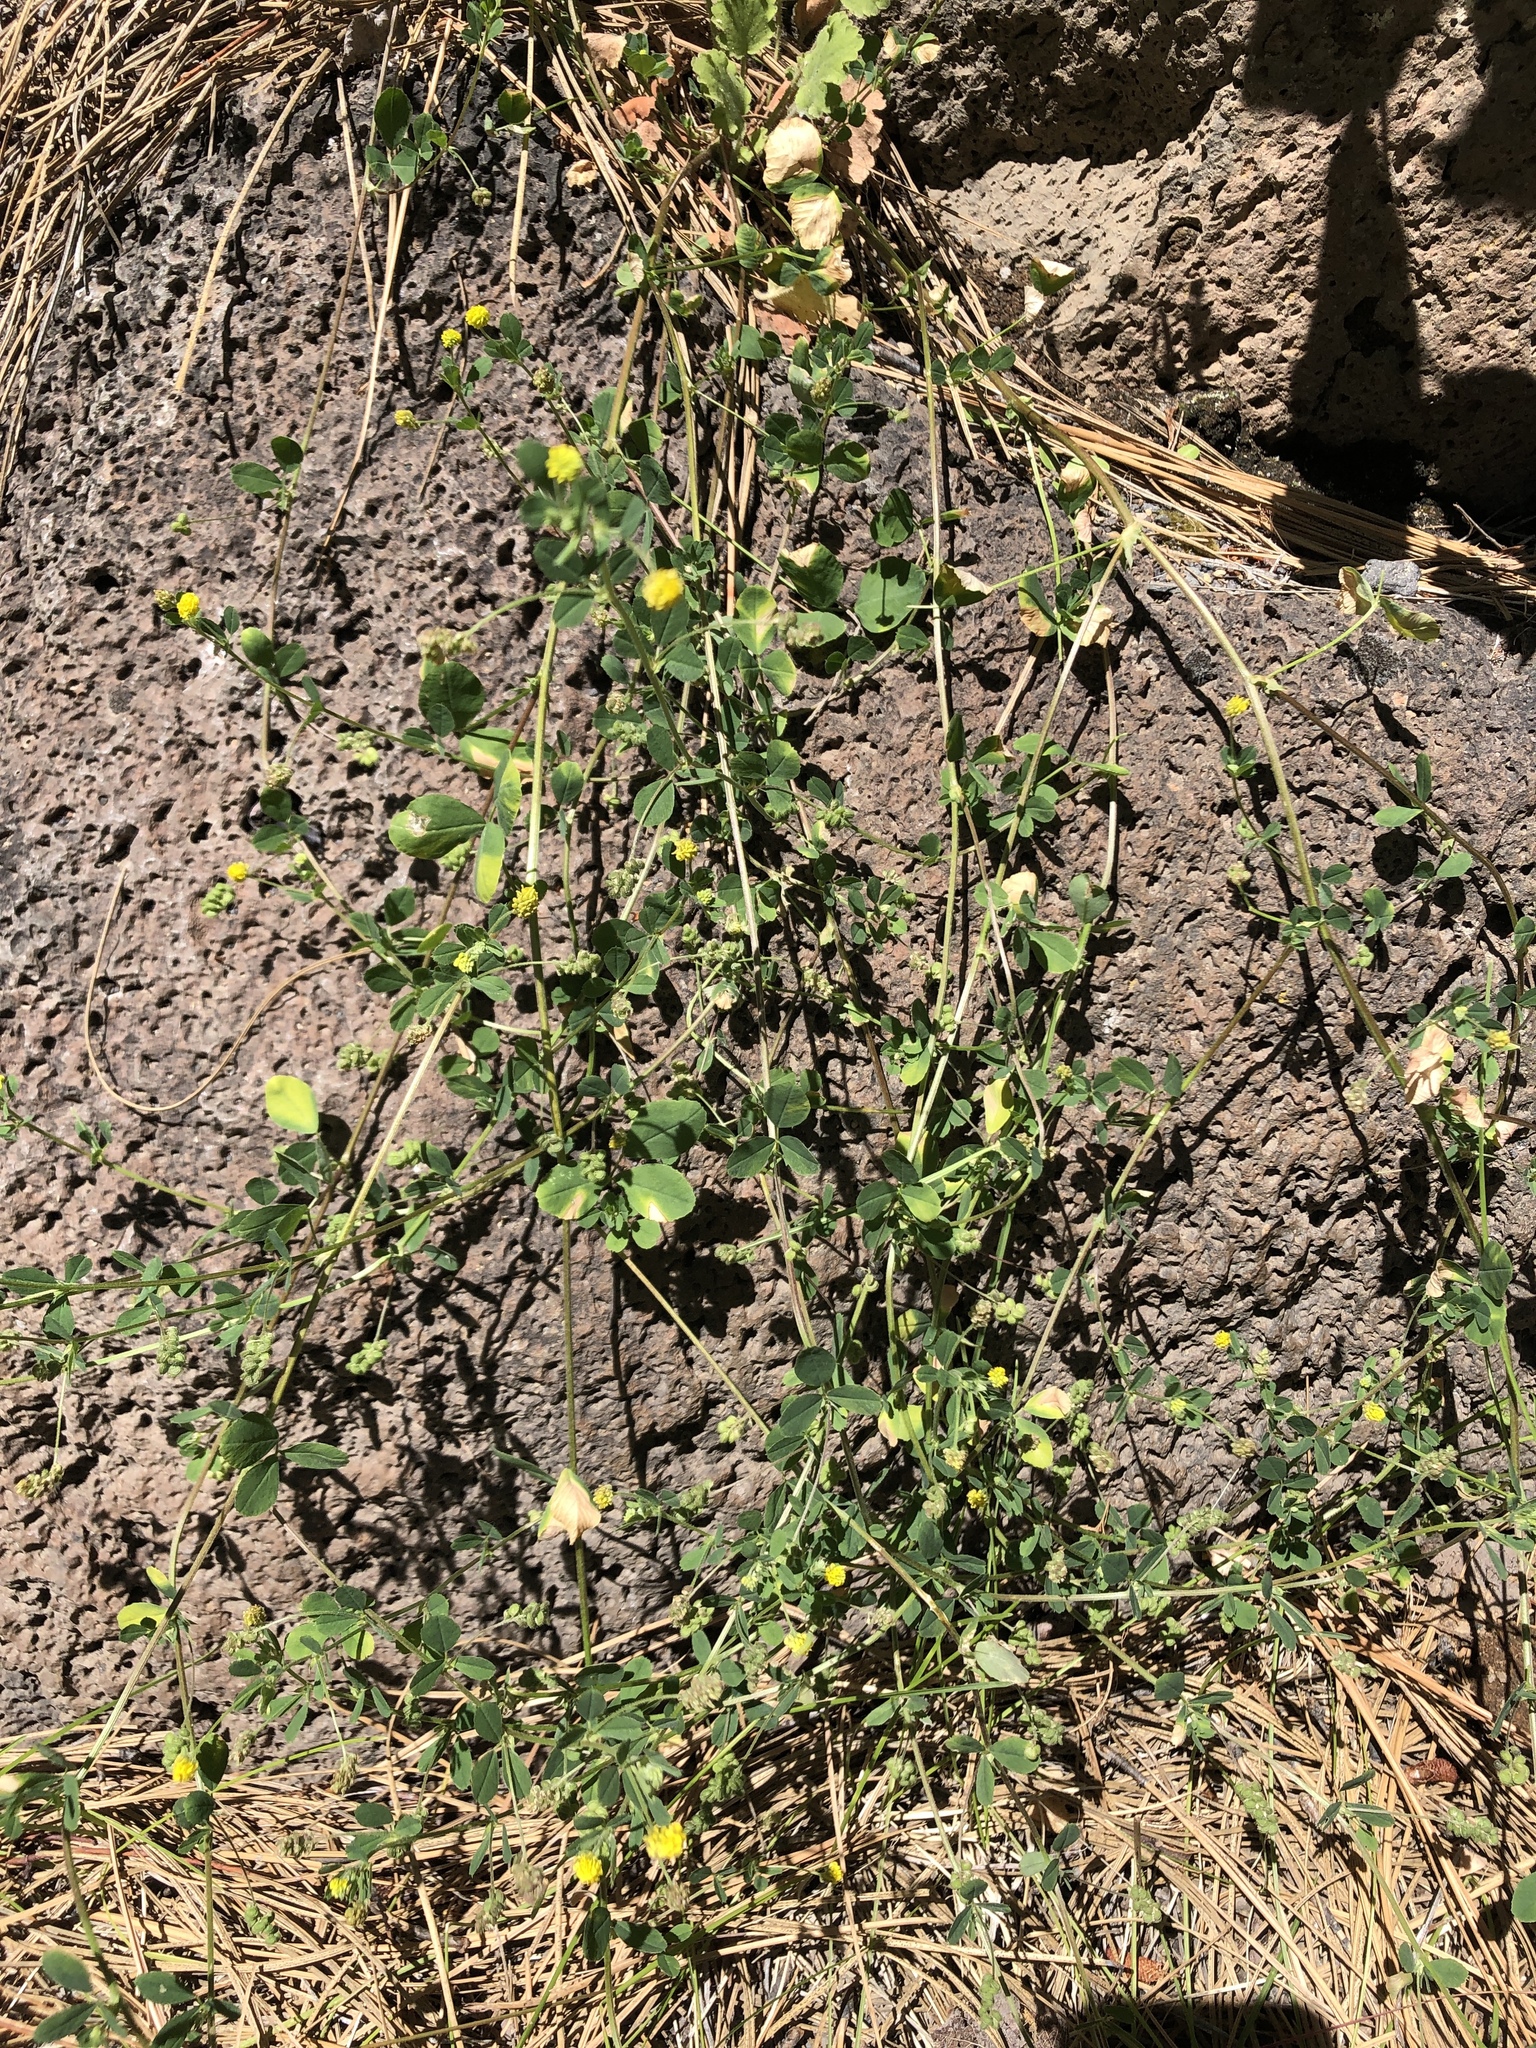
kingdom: Plantae
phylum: Tracheophyta
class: Magnoliopsida
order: Fabales
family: Fabaceae
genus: Medicago
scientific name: Medicago lupulina
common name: Black medick
